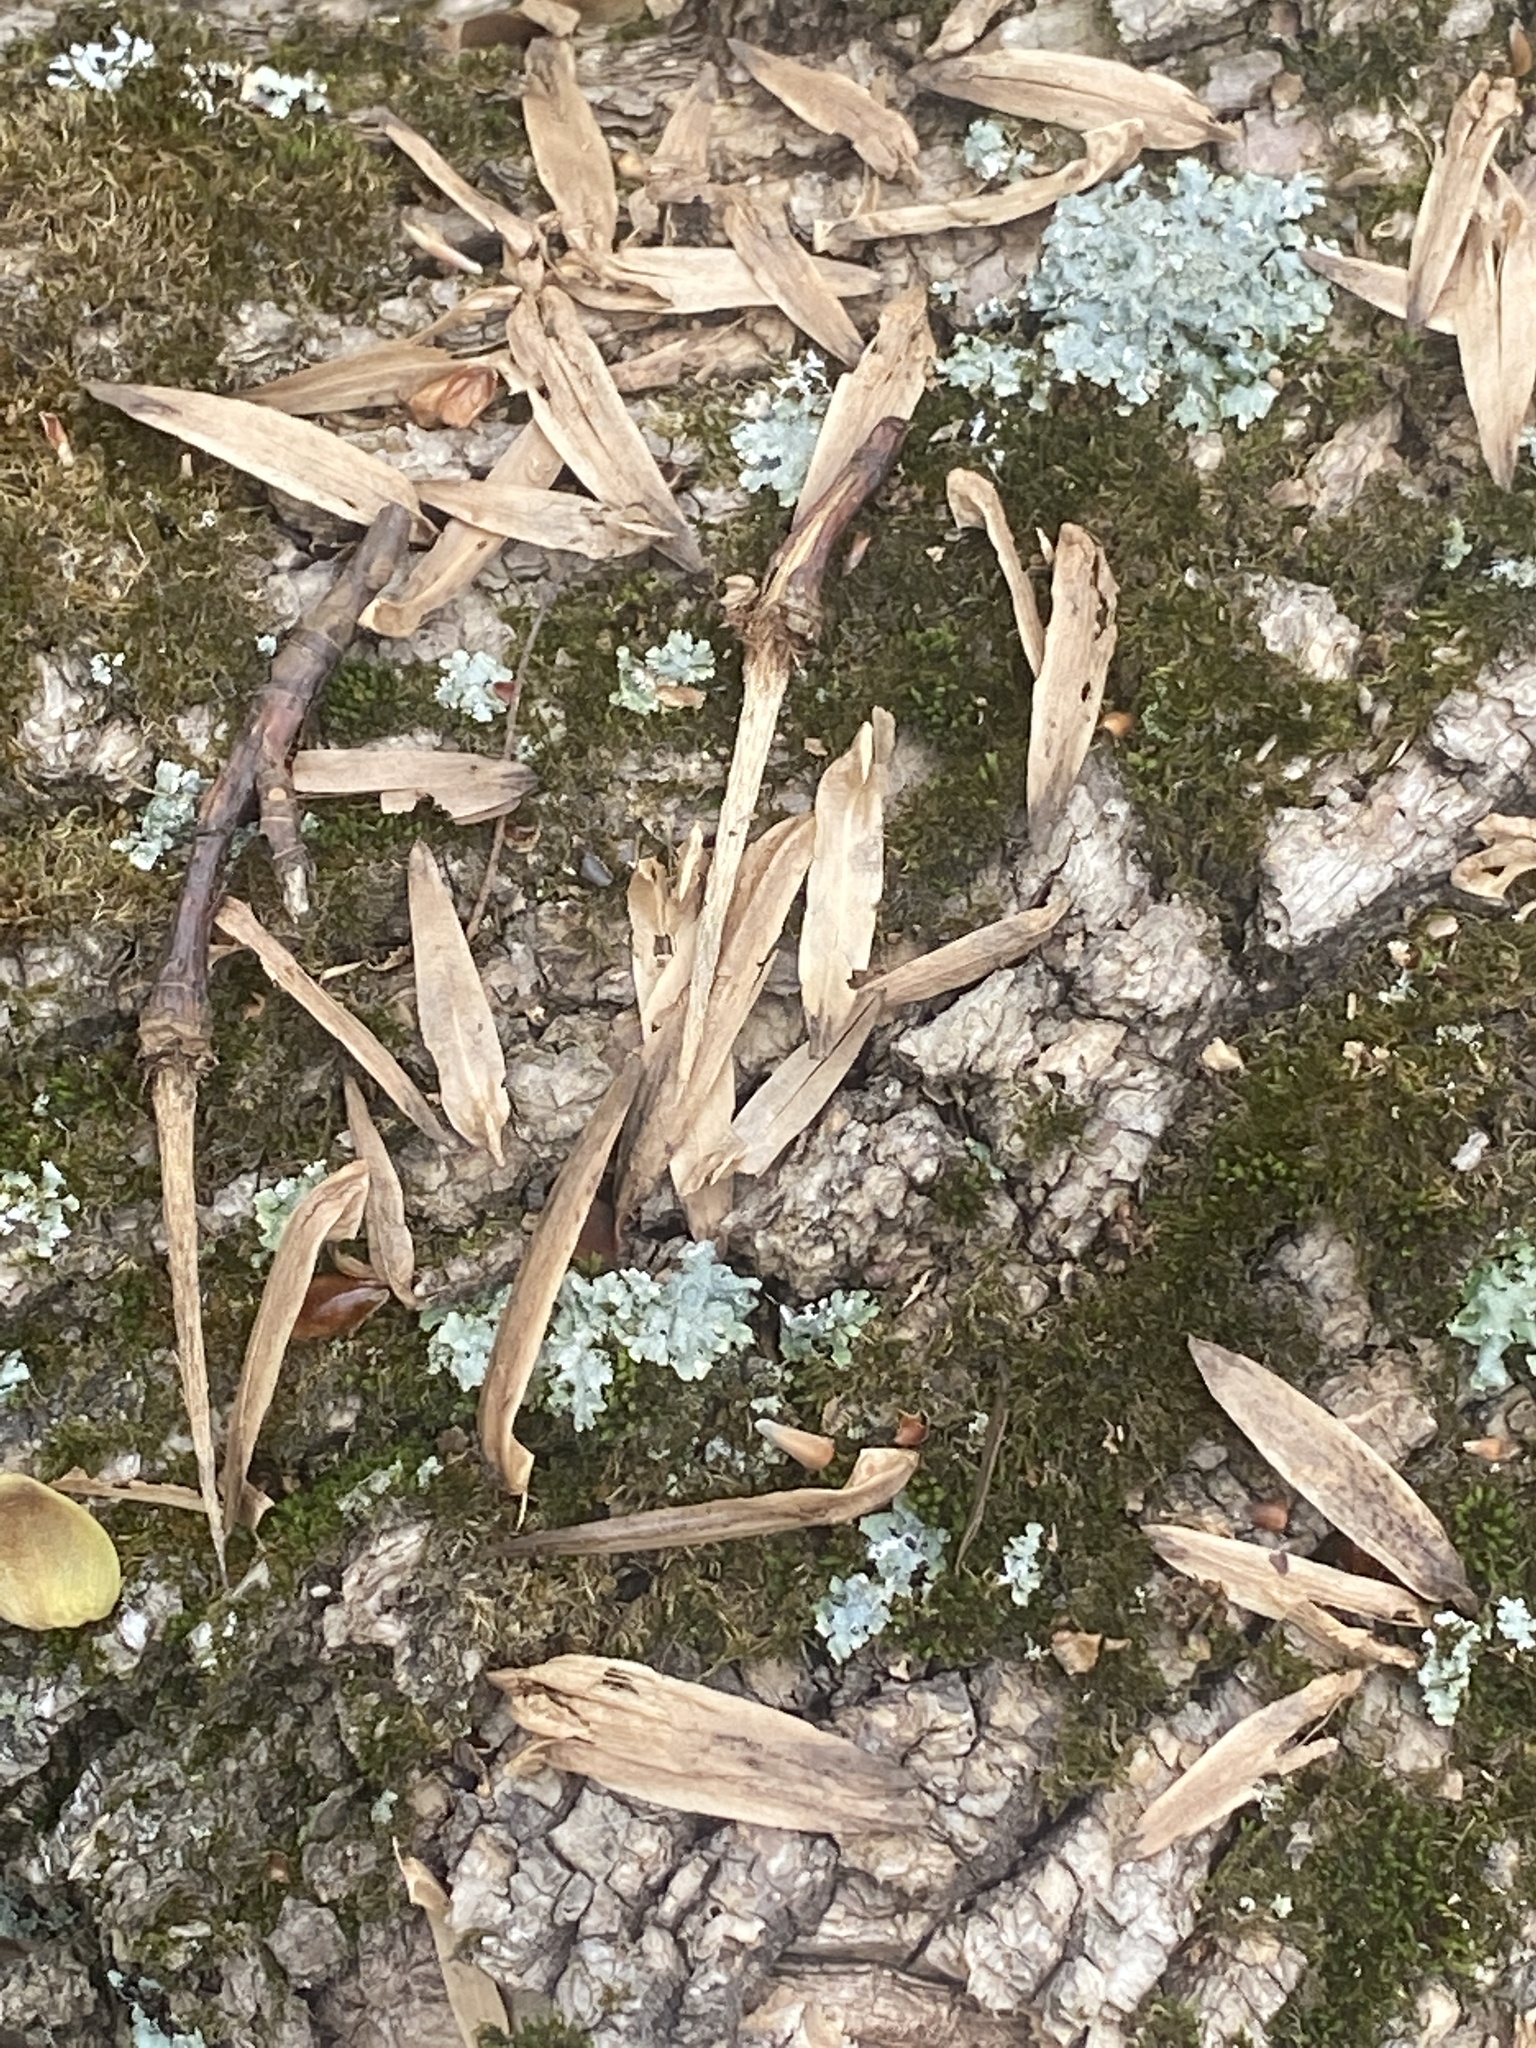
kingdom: Plantae
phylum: Tracheophyta
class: Magnoliopsida
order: Magnoliales
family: Magnoliaceae
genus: Liriodendron
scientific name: Liriodendron tulipifera
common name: Tulip tree
